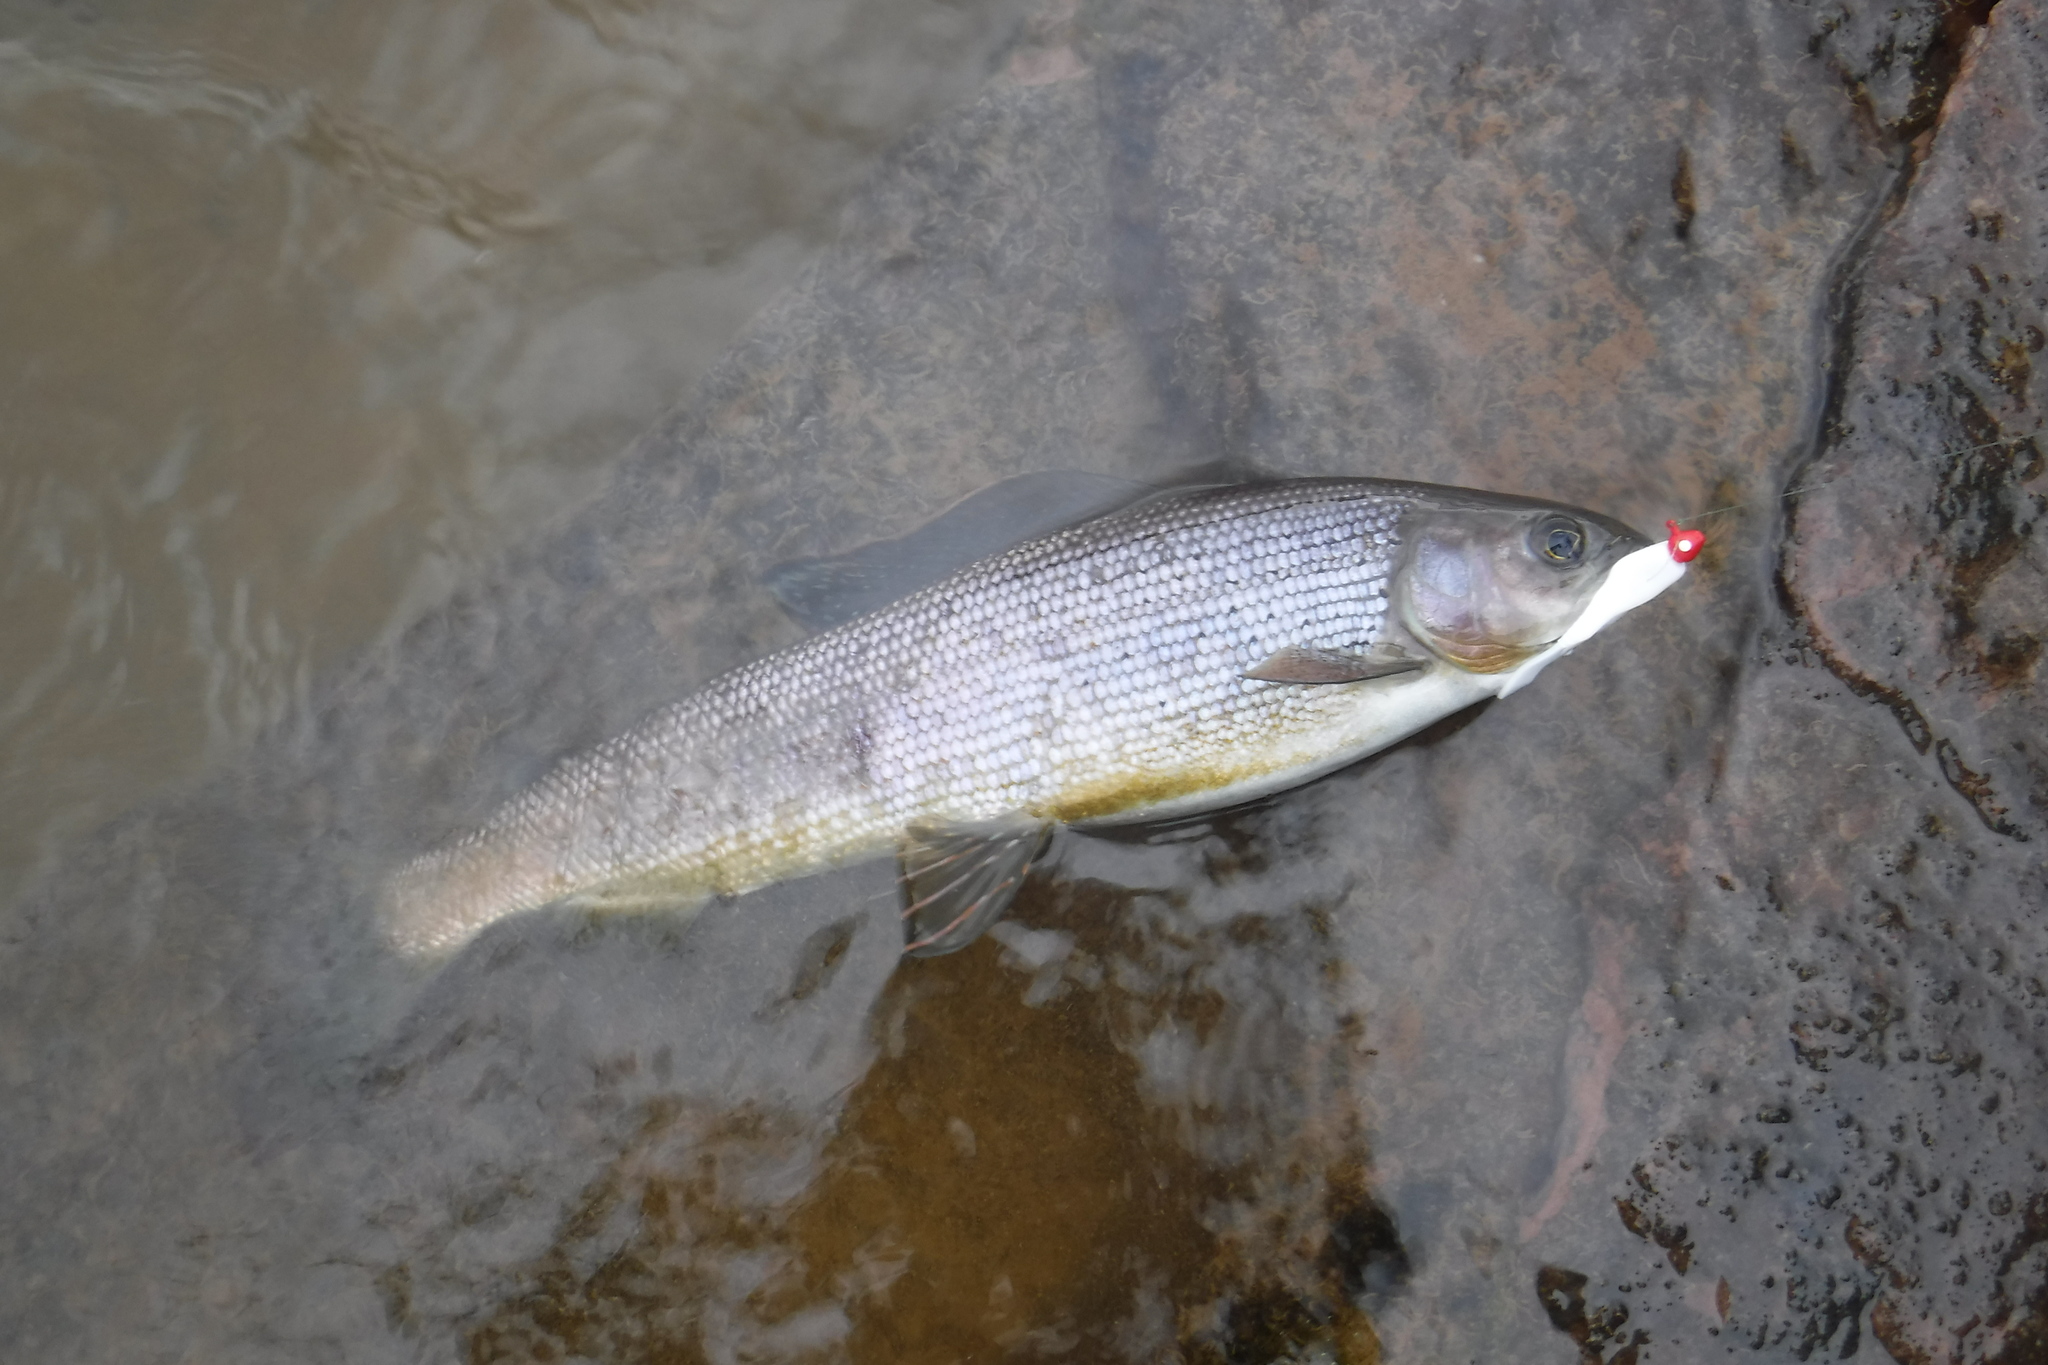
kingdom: Animalia
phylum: Chordata
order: Salmoniformes
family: Salmonidae
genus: Thymallus
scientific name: Thymallus arcticus
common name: Arctic grayling
